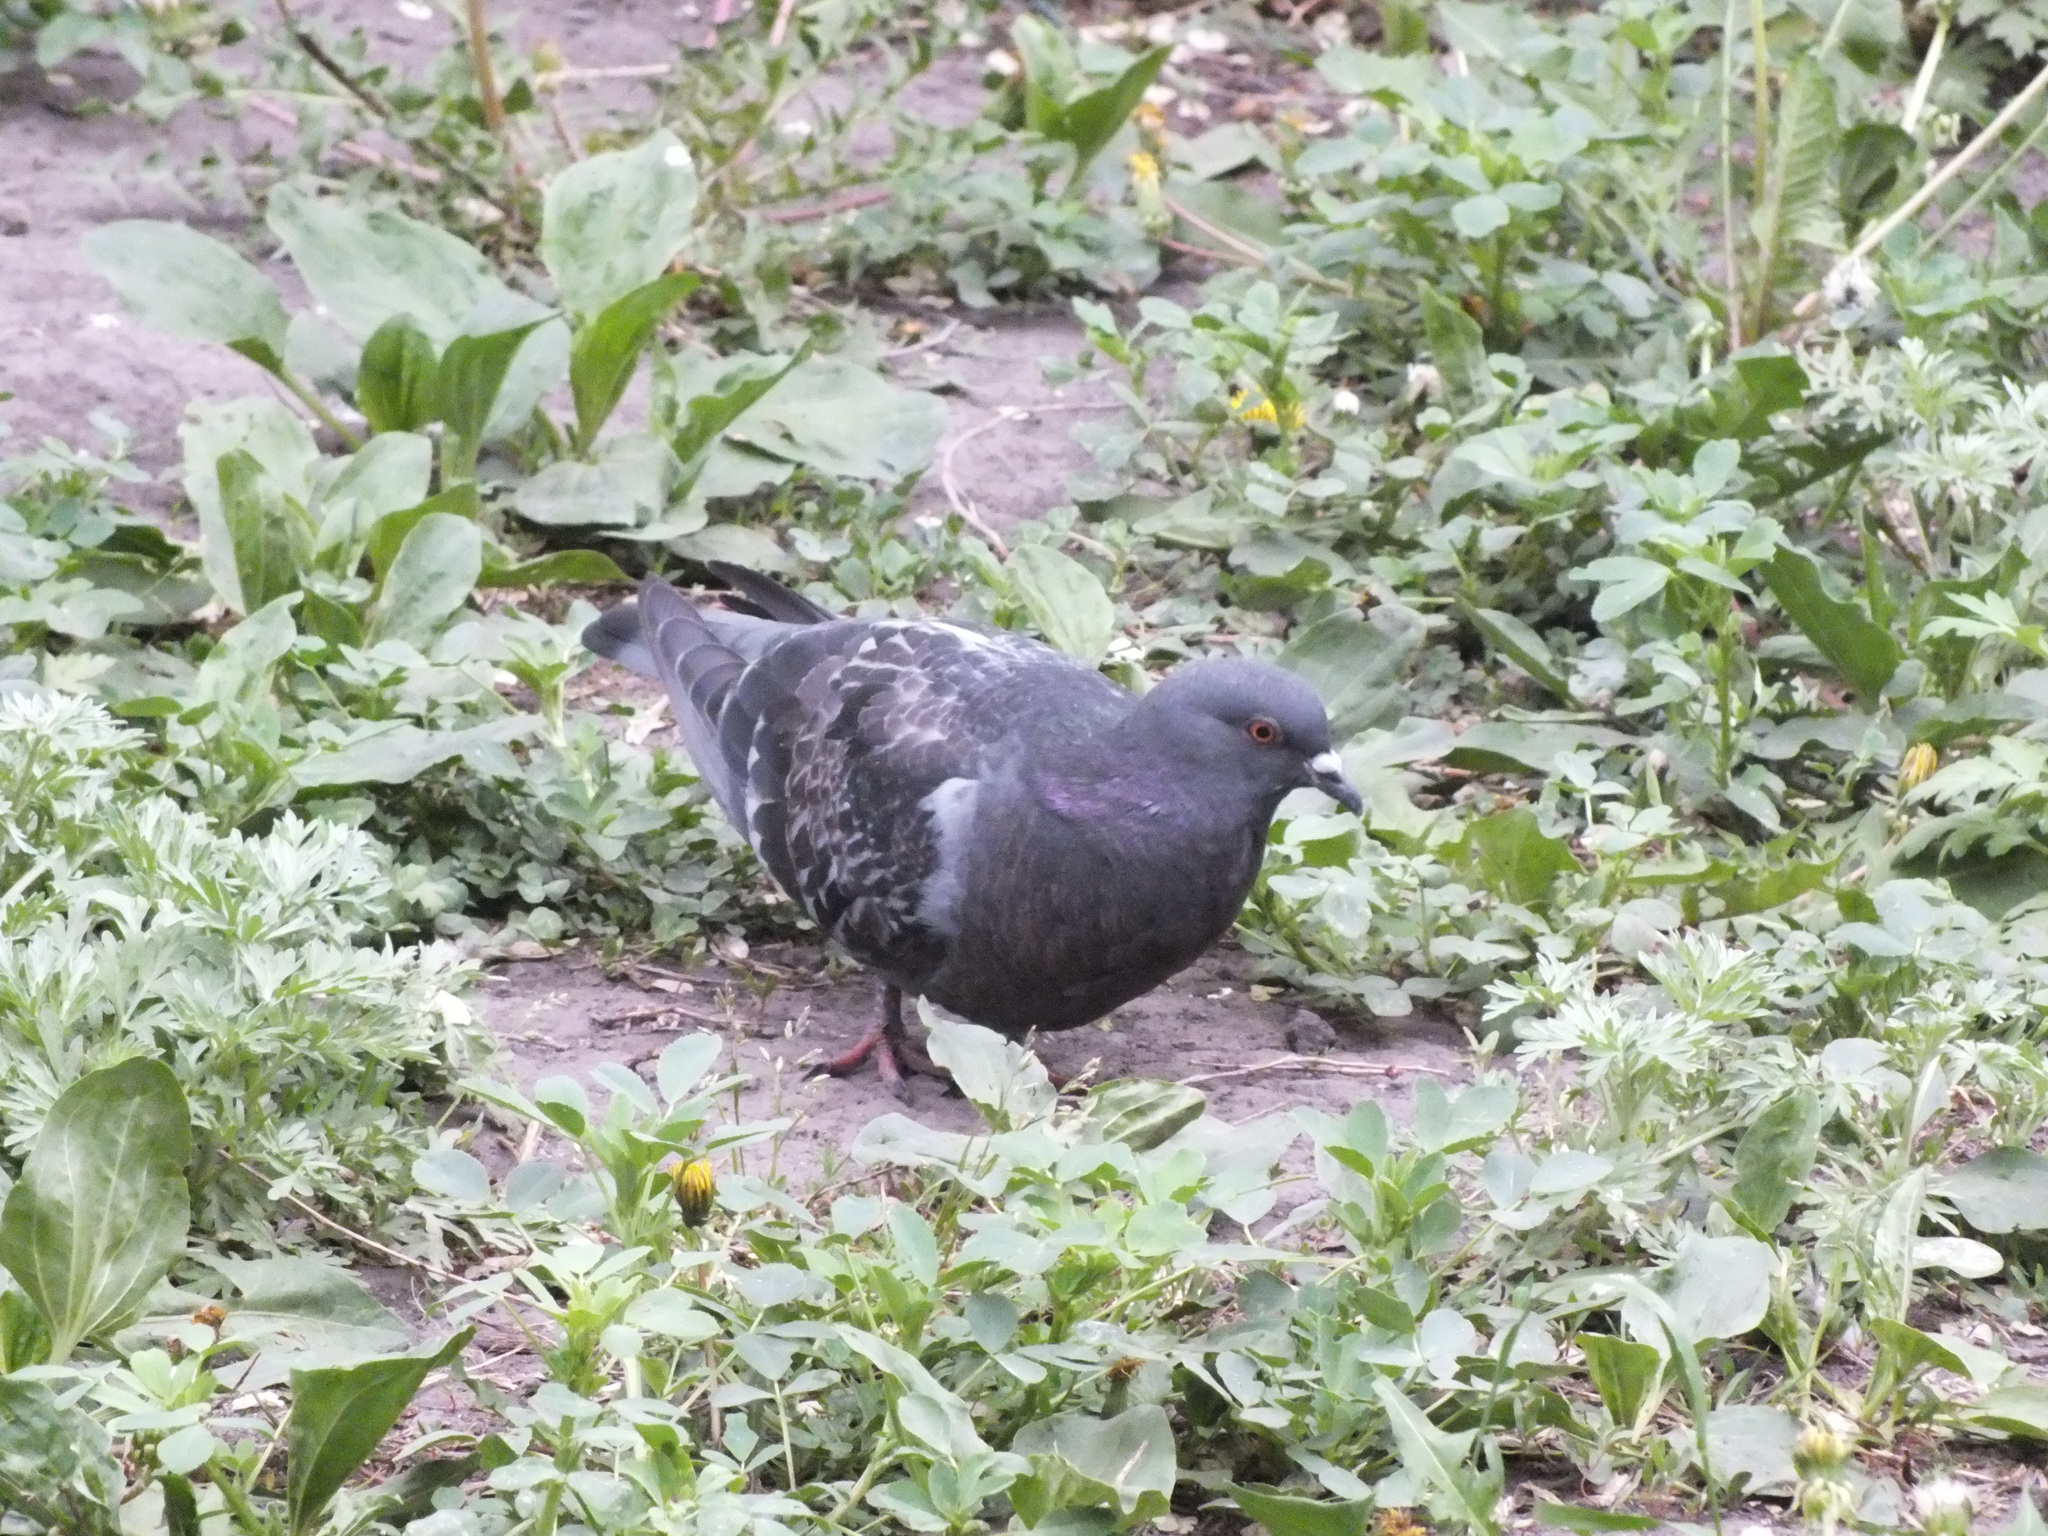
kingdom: Animalia
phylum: Chordata
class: Aves
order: Columbiformes
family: Columbidae
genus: Columba
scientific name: Columba livia
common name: Rock pigeon
